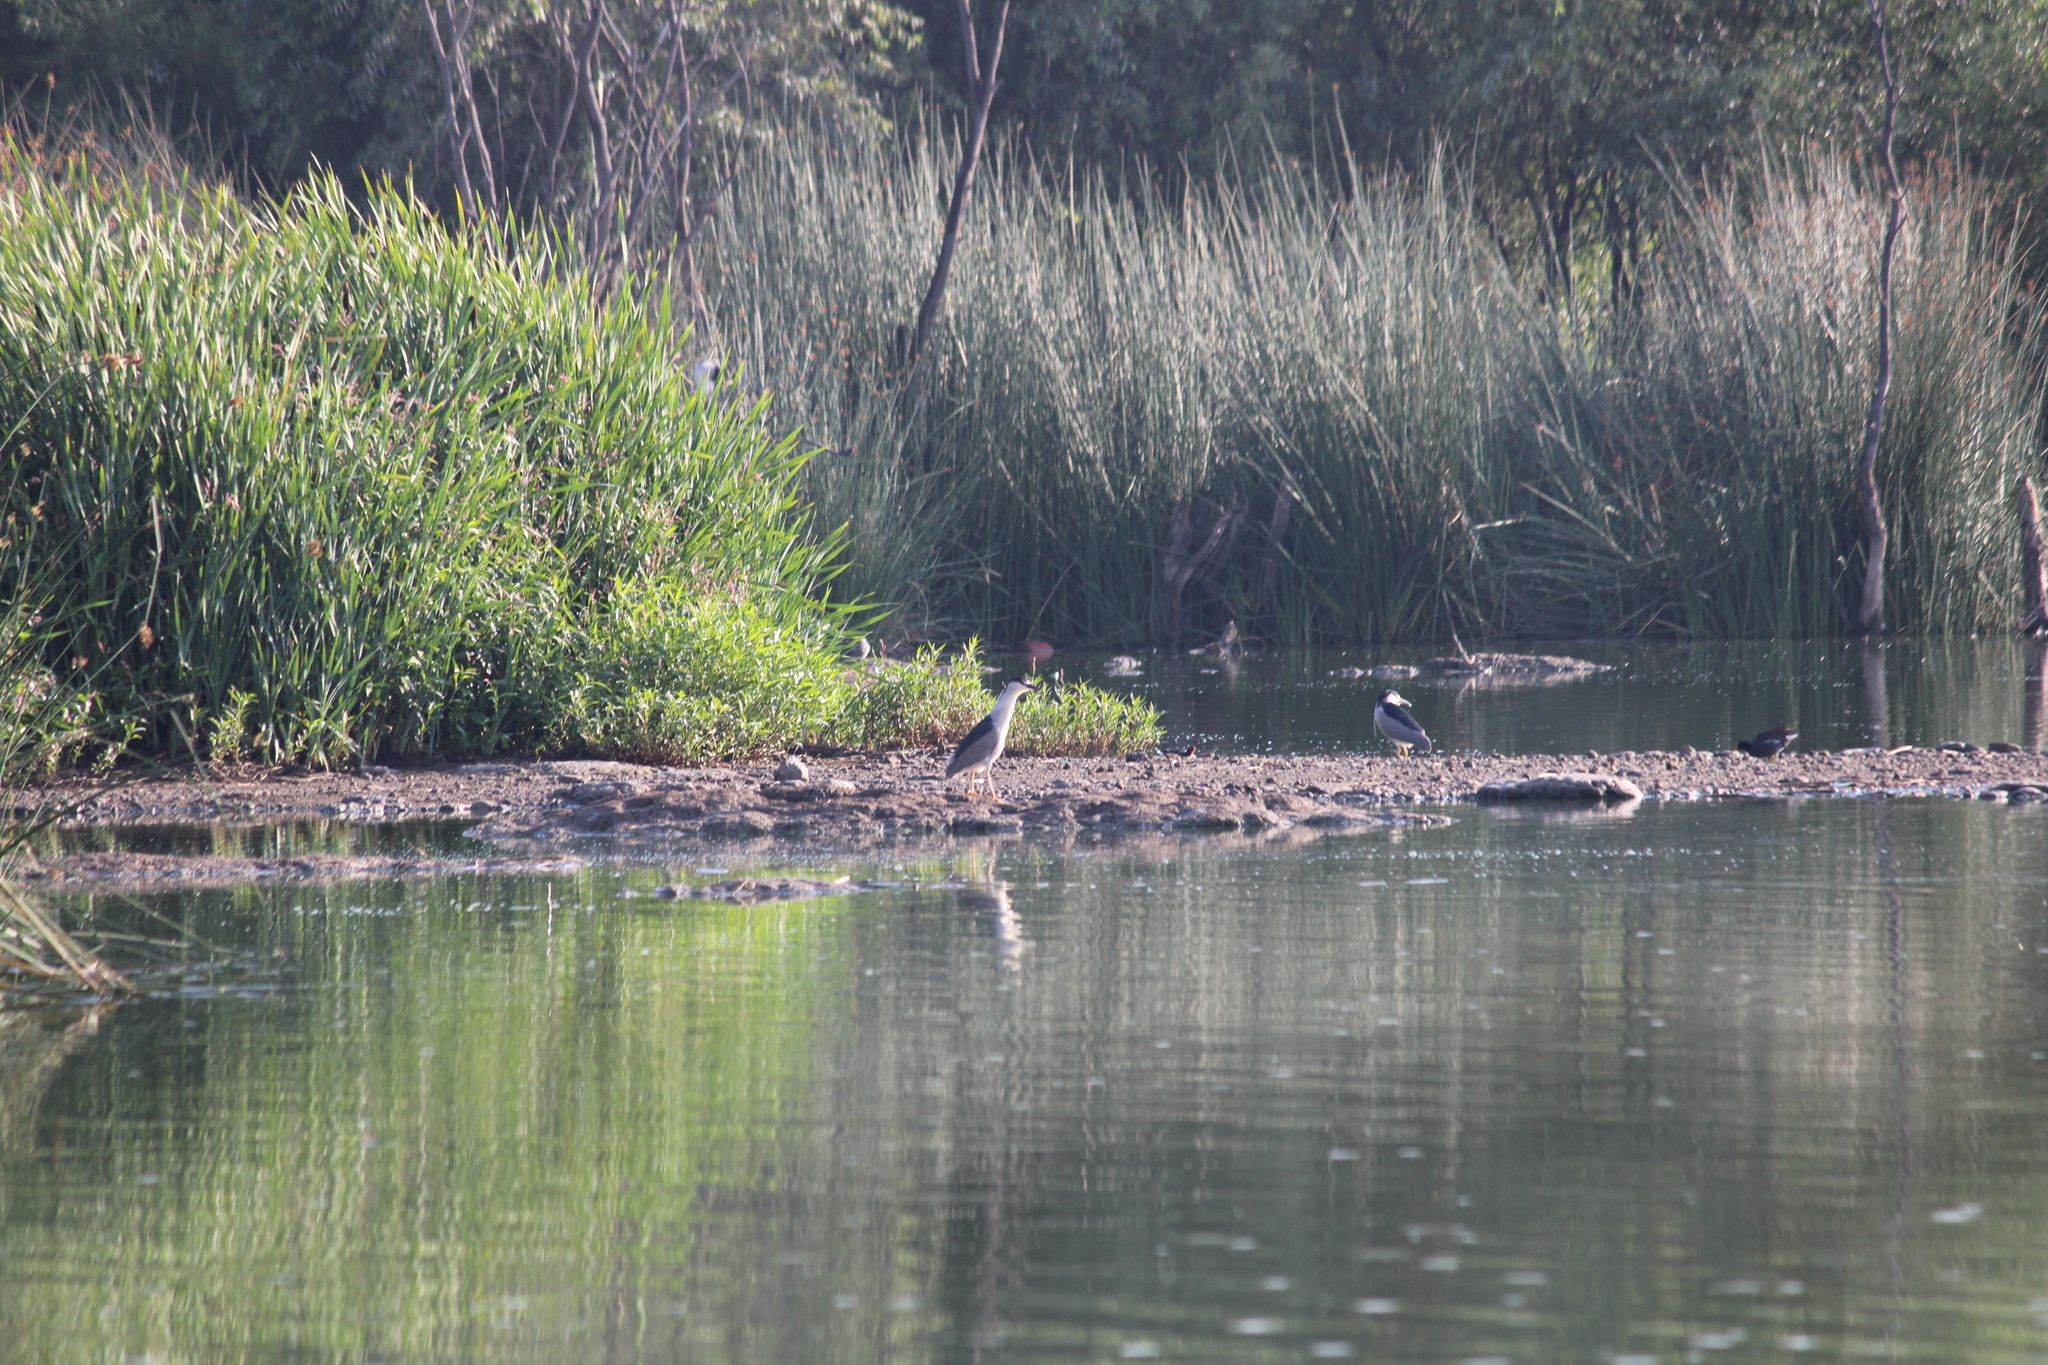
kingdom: Animalia
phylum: Chordata
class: Aves
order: Pelecaniformes
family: Ardeidae
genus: Nycticorax
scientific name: Nycticorax nycticorax
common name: Black-crowned night heron
